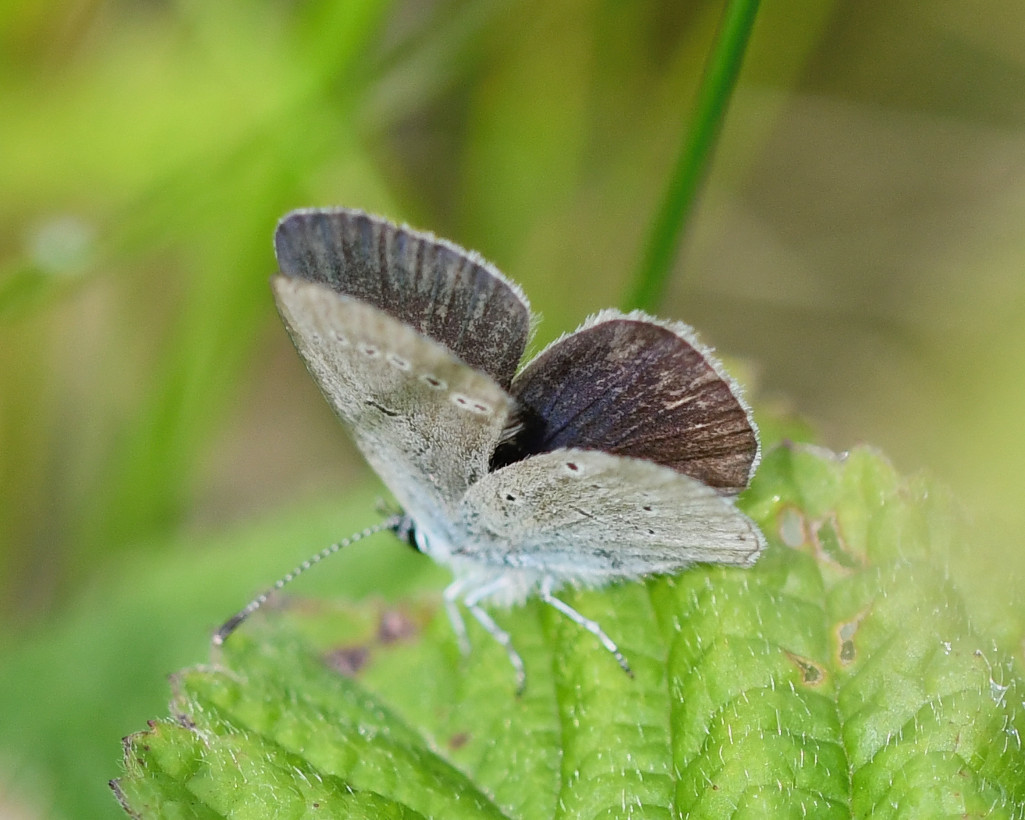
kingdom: Animalia
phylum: Arthropoda
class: Insecta
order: Lepidoptera
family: Lycaenidae
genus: Cupido
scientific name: Cupido minimus
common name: Small blue
